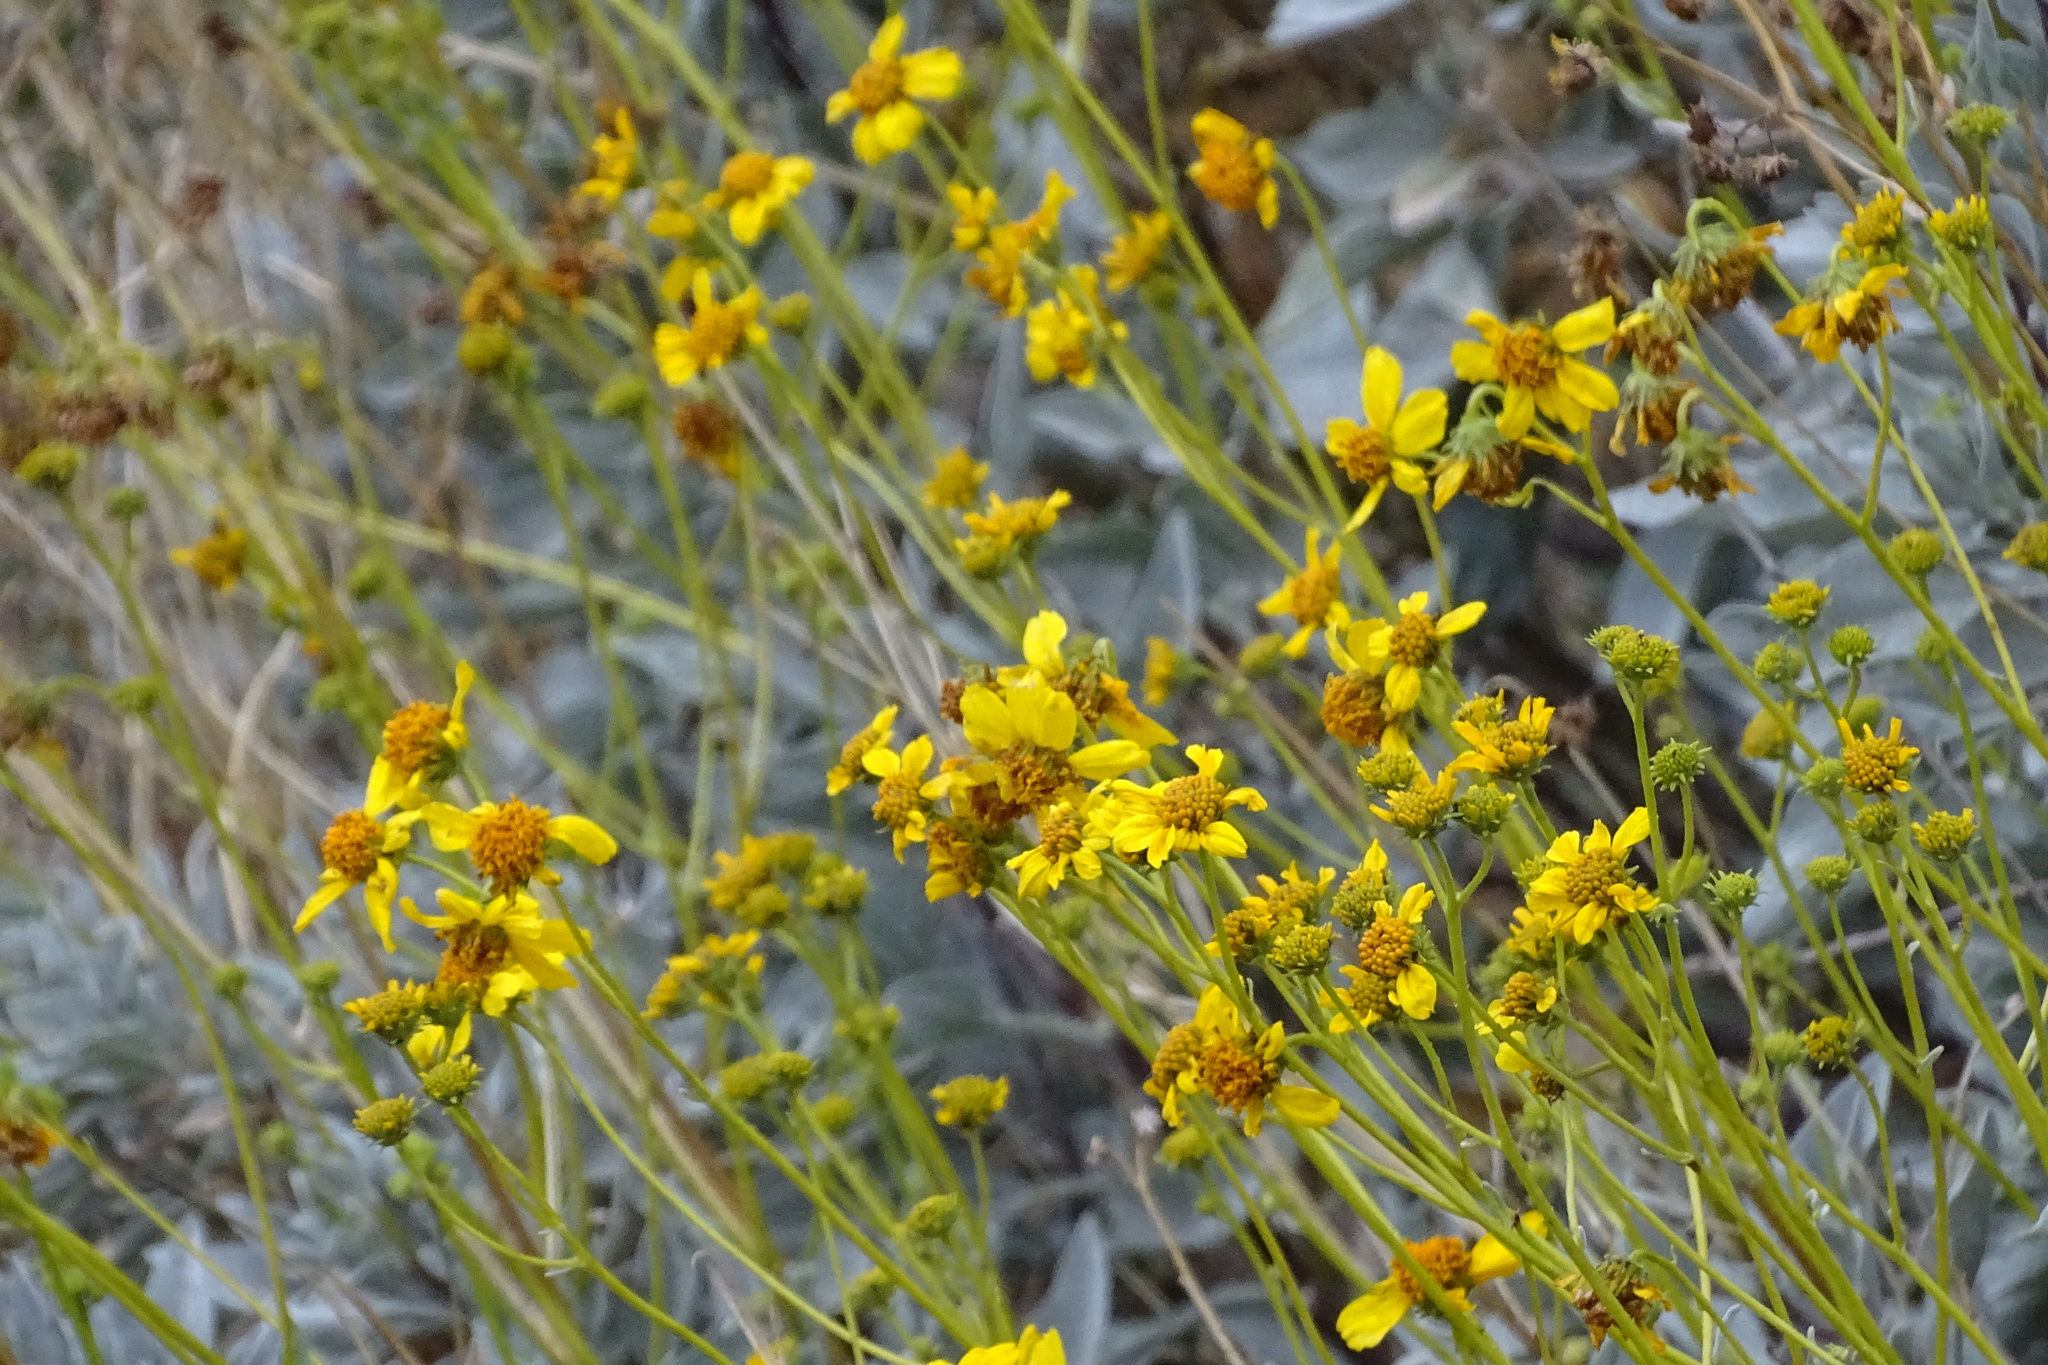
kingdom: Plantae
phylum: Tracheophyta
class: Magnoliopsida
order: Asterales
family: Asteraceae
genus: Encelia
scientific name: Encelia farinosa
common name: Brittlebush
